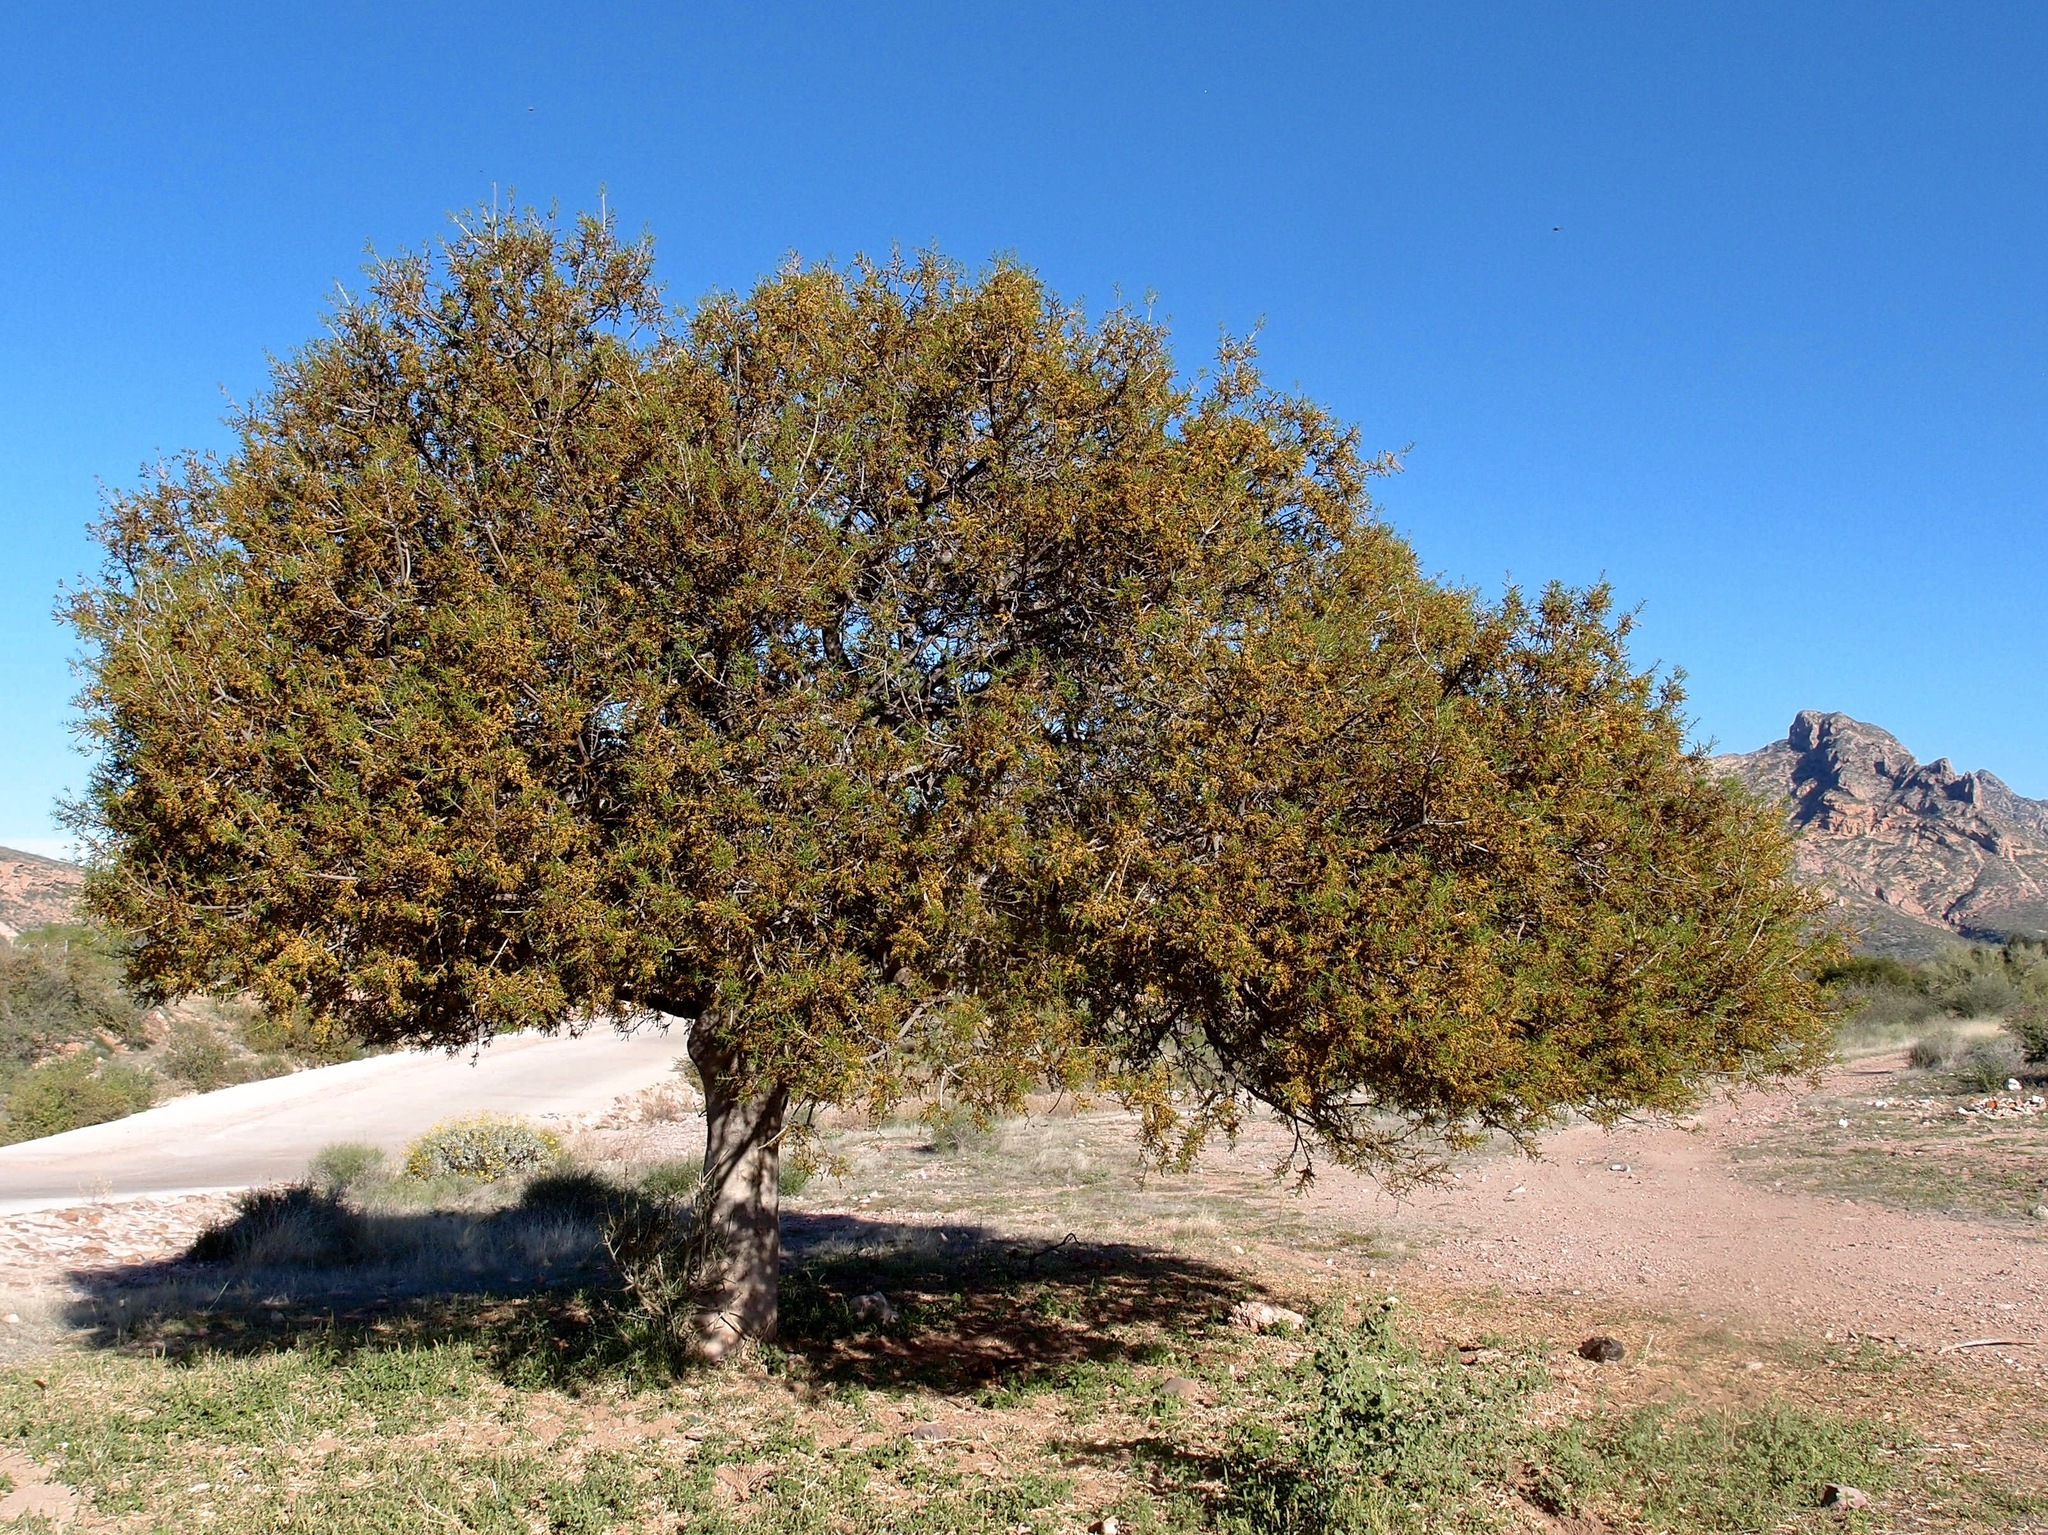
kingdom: Plantae
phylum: Tracheophyta
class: Magnoliopsida
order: Brassicales
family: Stixaceae
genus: Forchhammeria
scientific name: Forchhammeria watsonii
